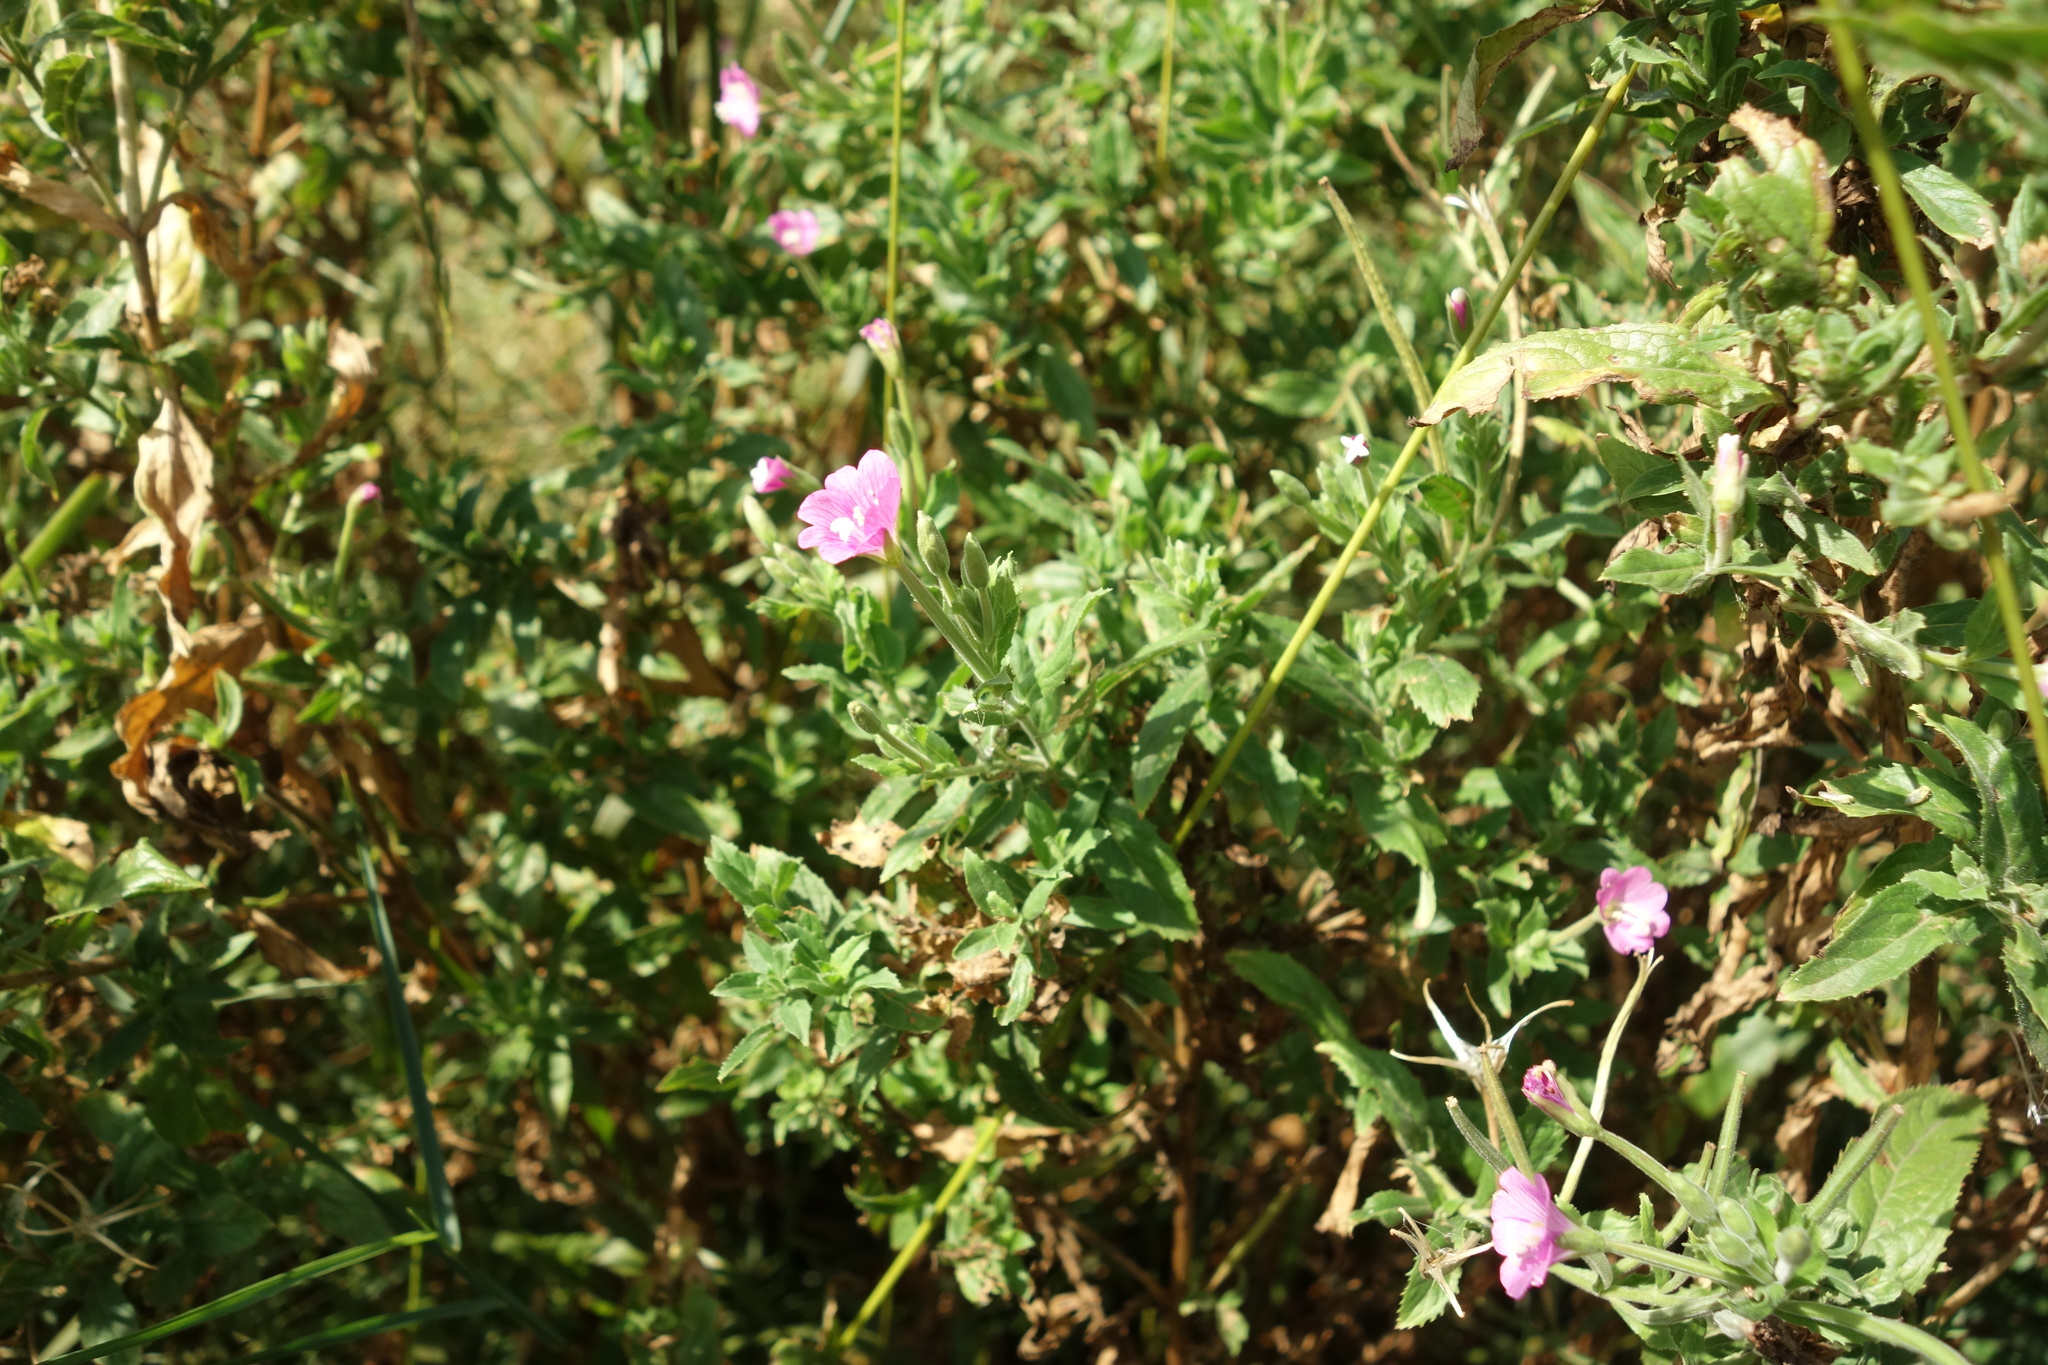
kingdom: Plantae
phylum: Tracheophyta
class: Magnoliopsida
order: Myrtales
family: Onagraceae
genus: Epilobium
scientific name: Epilobium hirsutum
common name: Great willowherb
